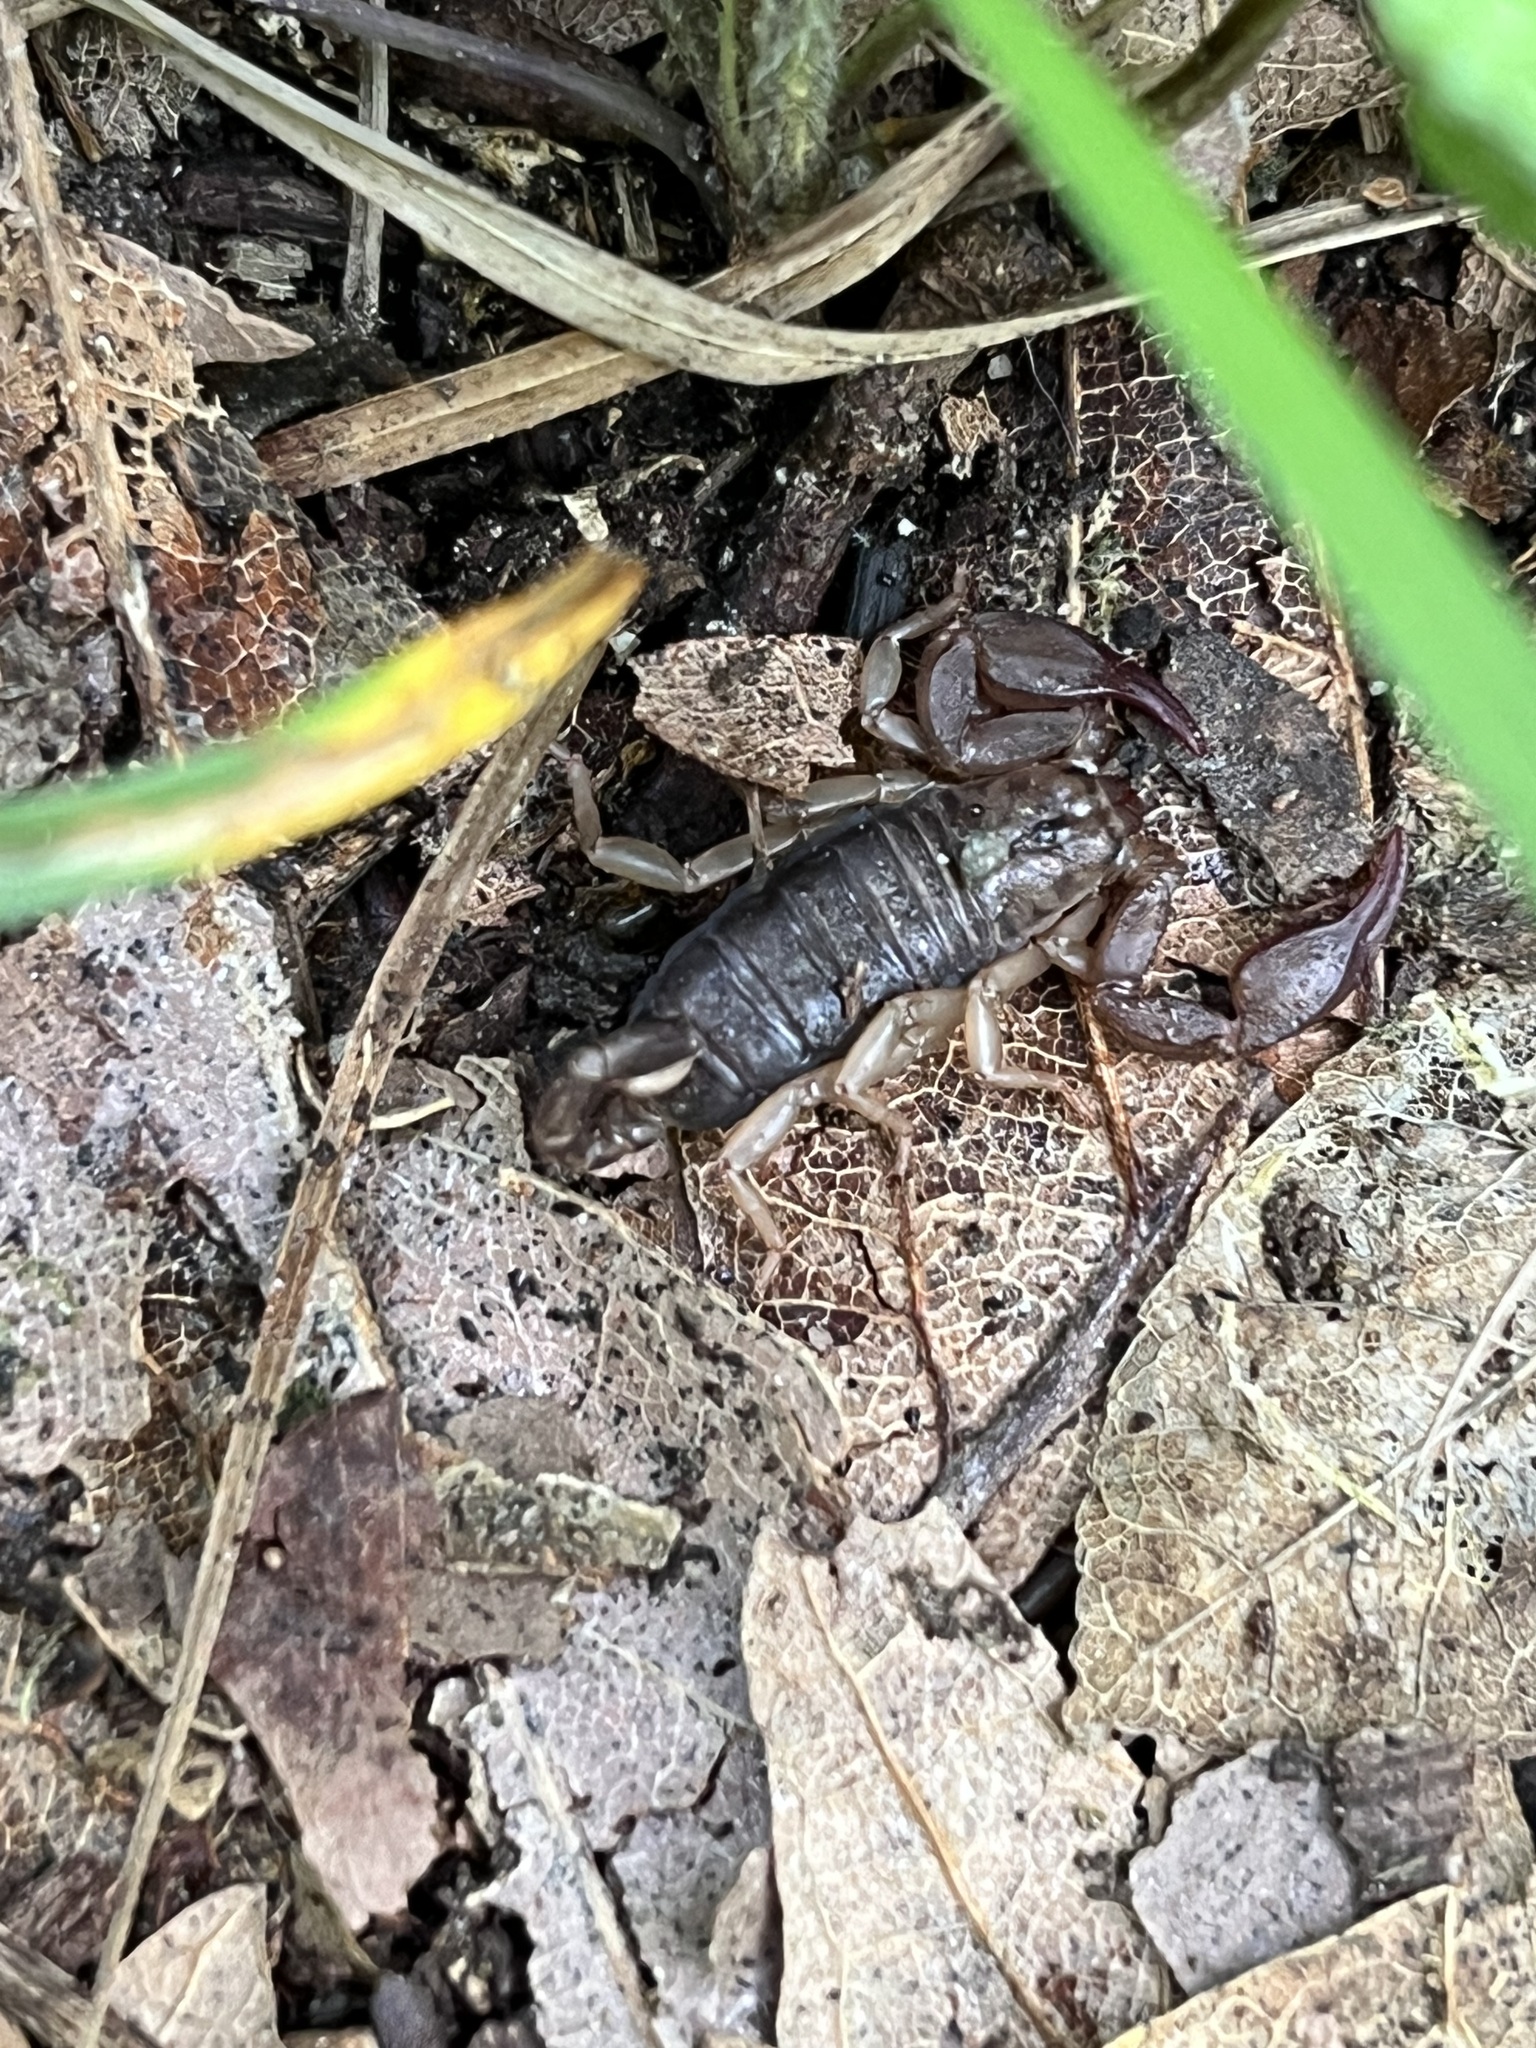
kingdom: Animalia
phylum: Arthropoda
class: Arachnida
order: Scorpiones
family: Euscorpiidae
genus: Euscorpius
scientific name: Euscorpius
